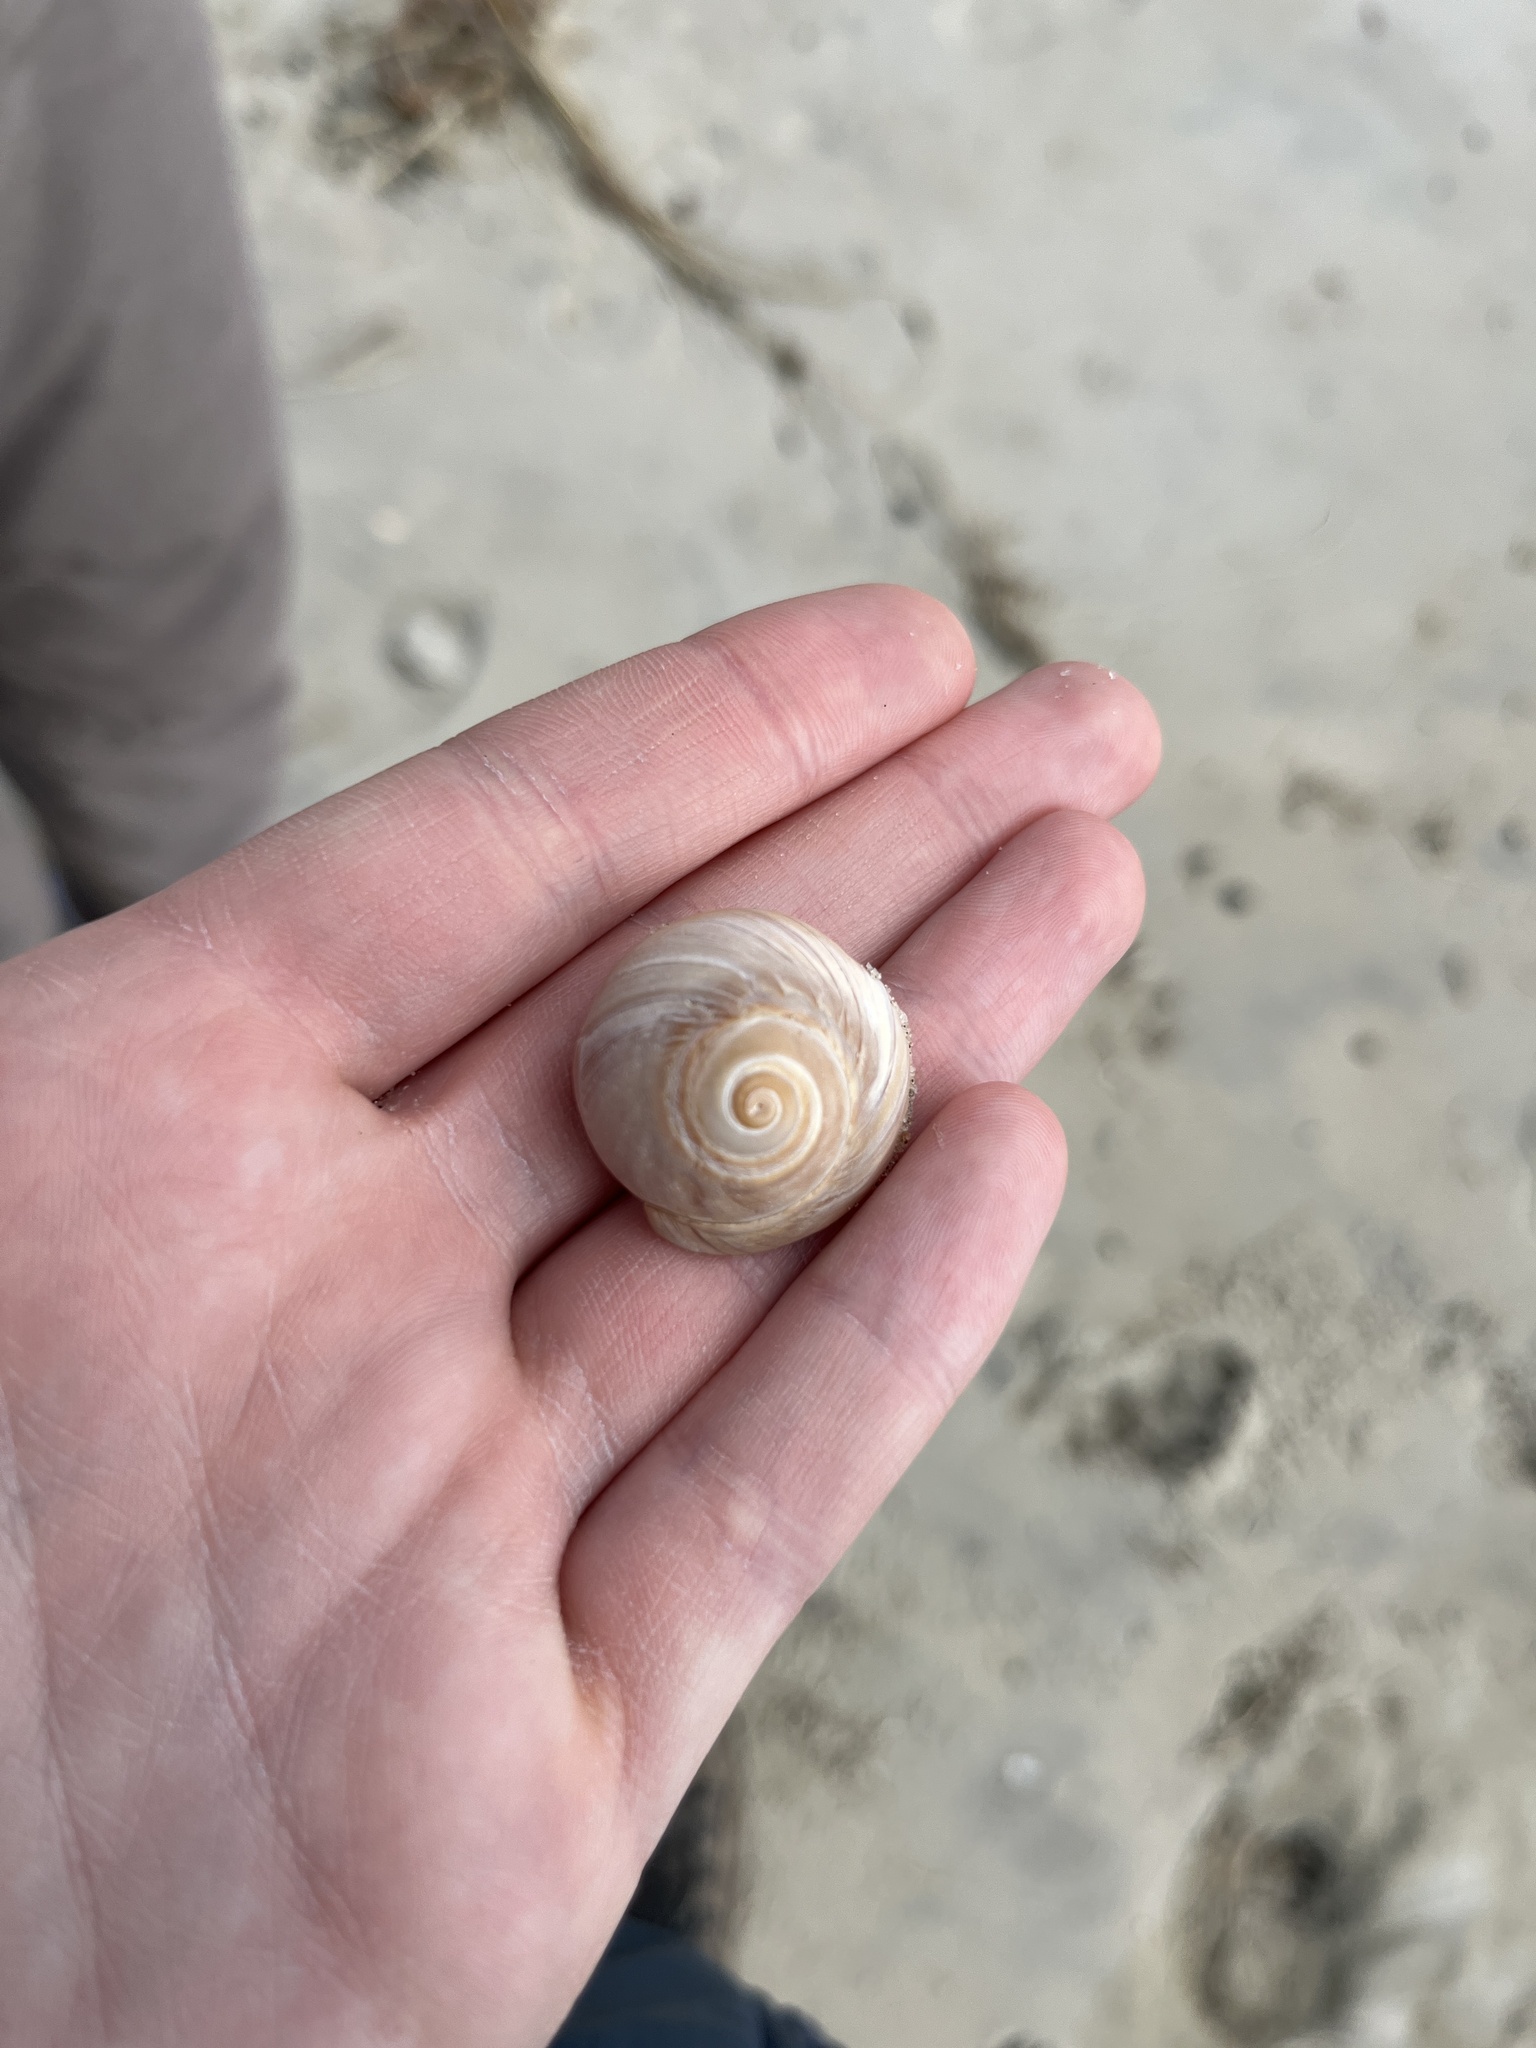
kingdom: Animalia
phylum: Mollusca
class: Gastropoda
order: Littorinimorpha
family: Naticidae
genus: Euspira
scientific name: Euspira heros
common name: Common northern moonsnail
